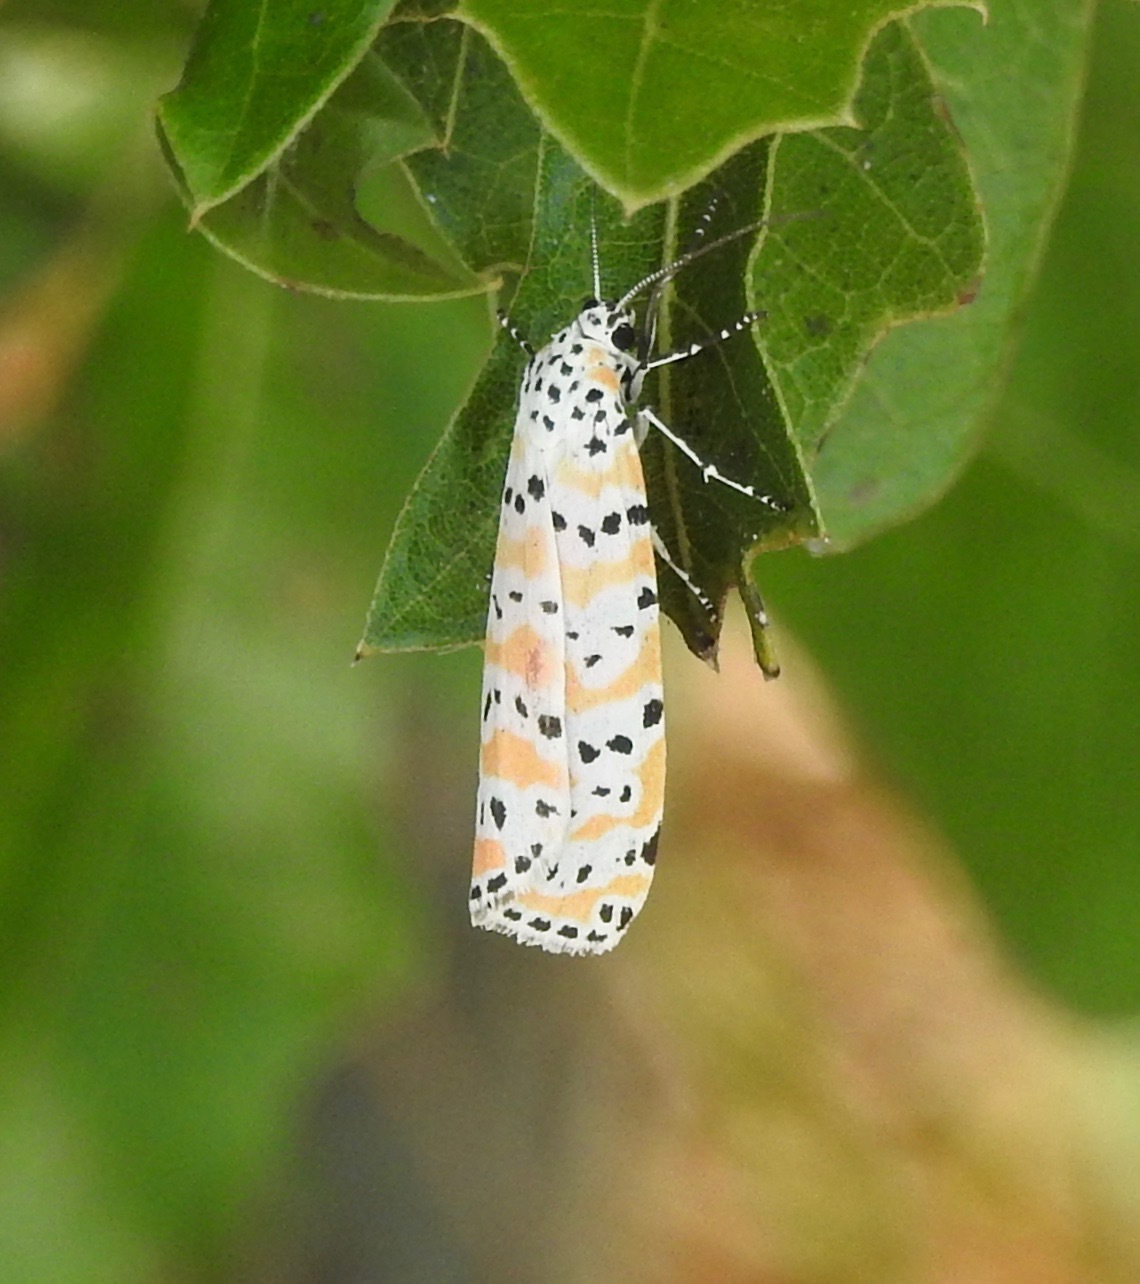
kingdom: Animalia
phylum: Arthropoda
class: Insecta
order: Lepidoptera
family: Erebidae
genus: Utetheisa
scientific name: Utetheisa ornatrix
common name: Beautiful utetheisa
